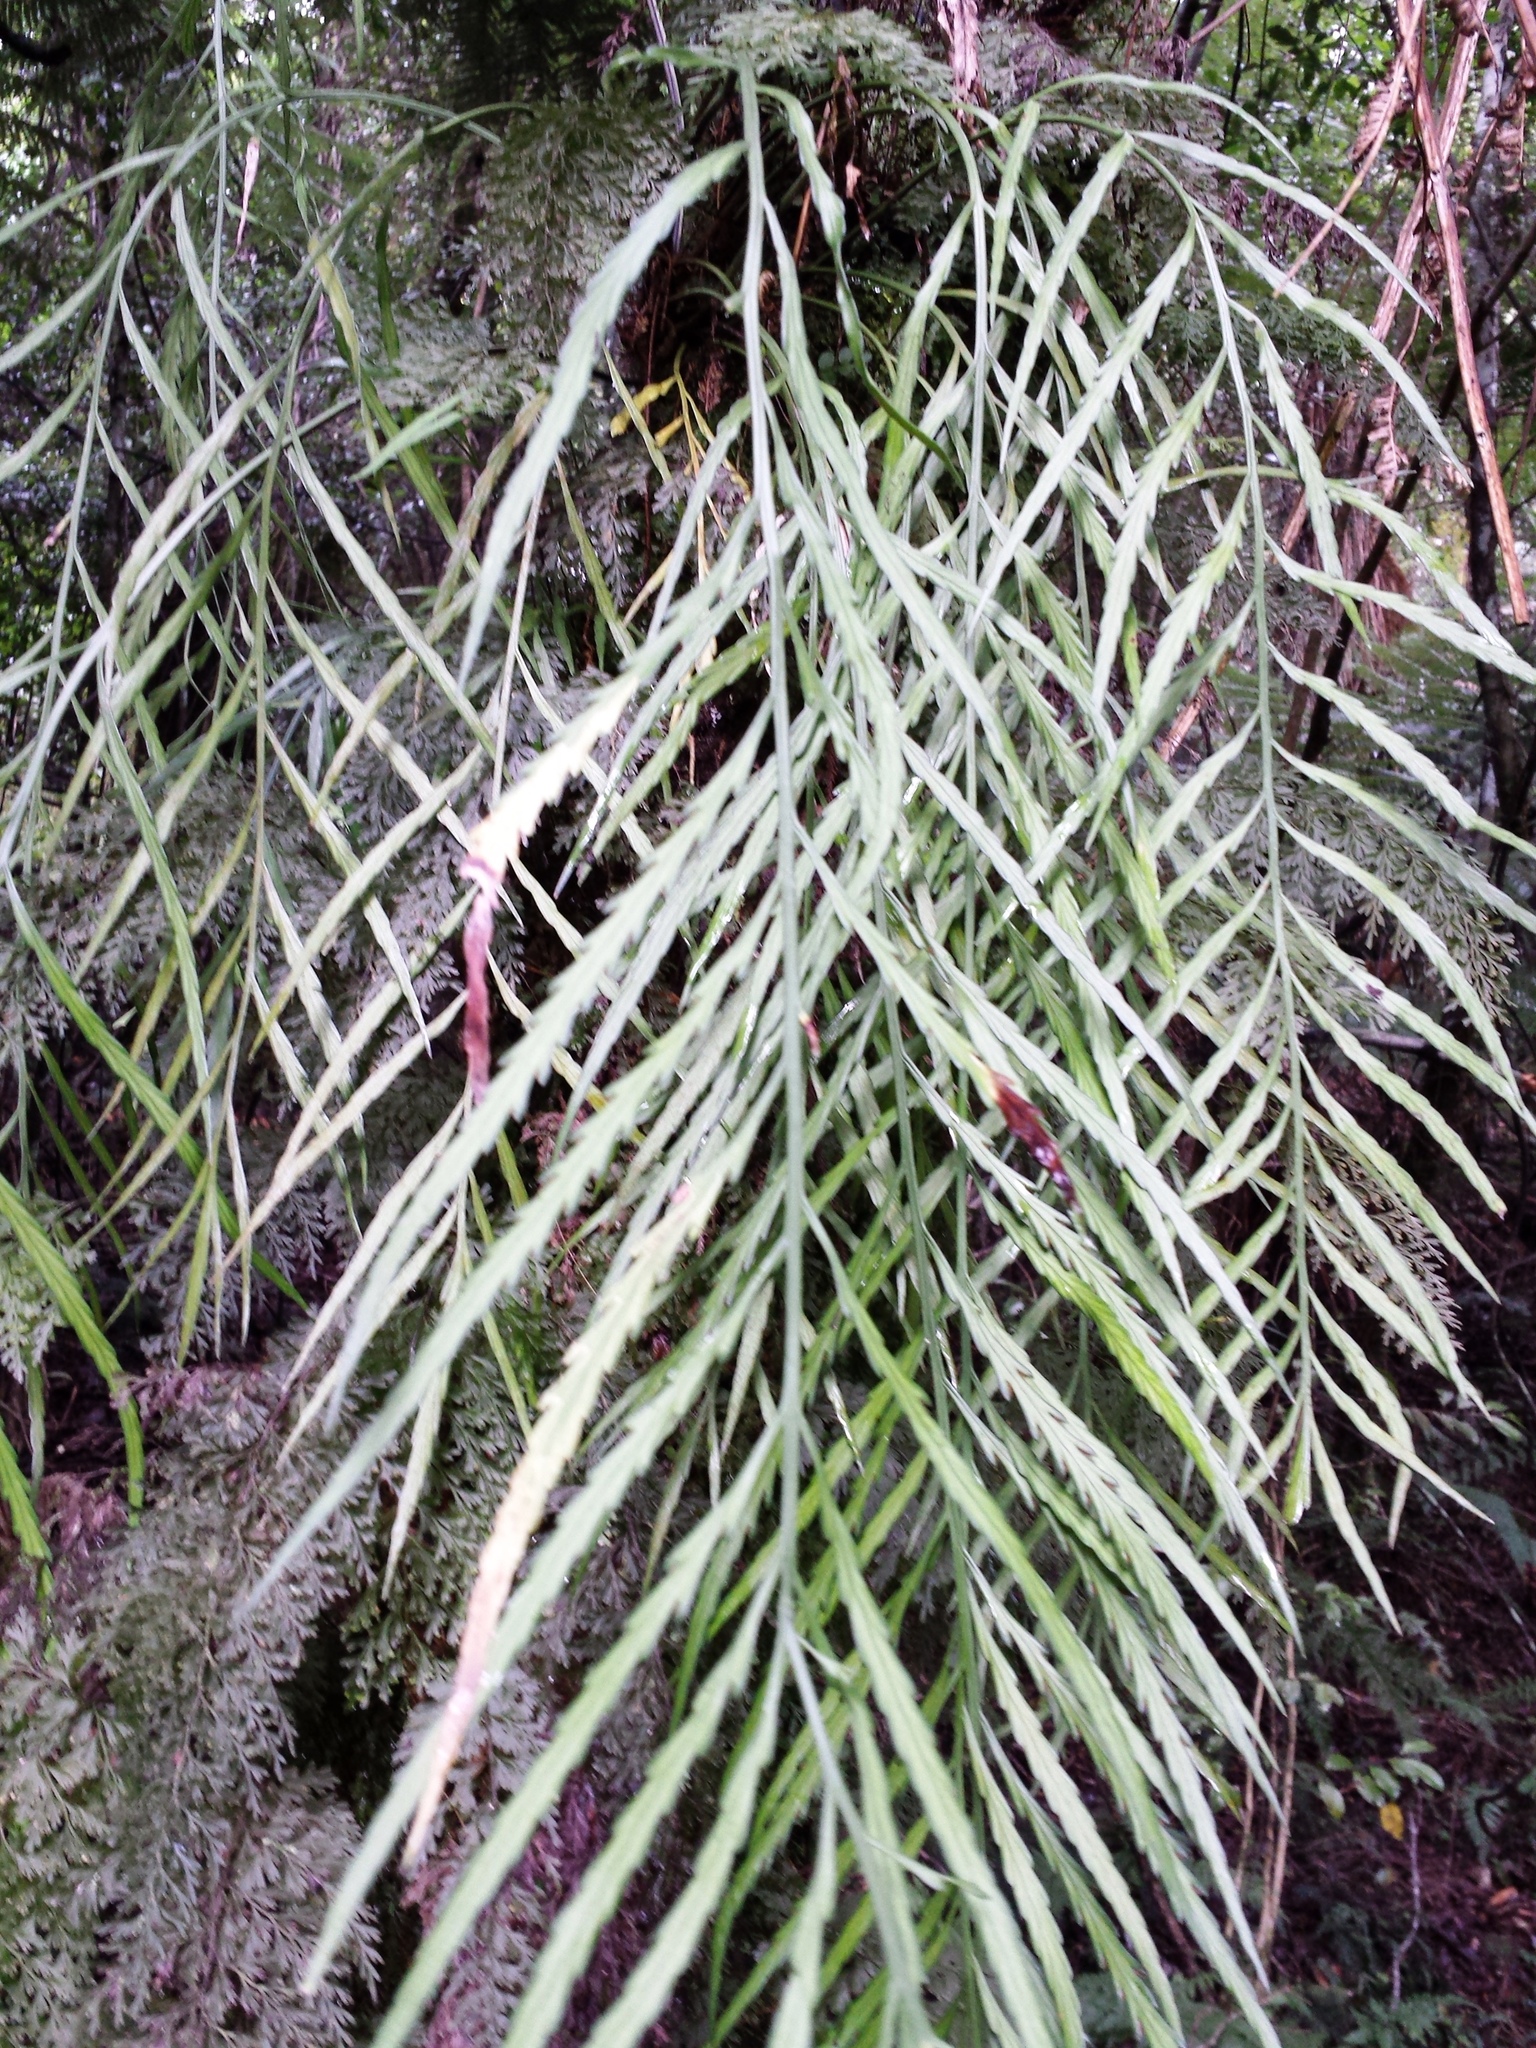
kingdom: Plantae
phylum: Tracheophyta
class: Polypodiopsida
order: Polypodiales
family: Aspleniaceae
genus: Asplenium
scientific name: Asplenium flaccidum
